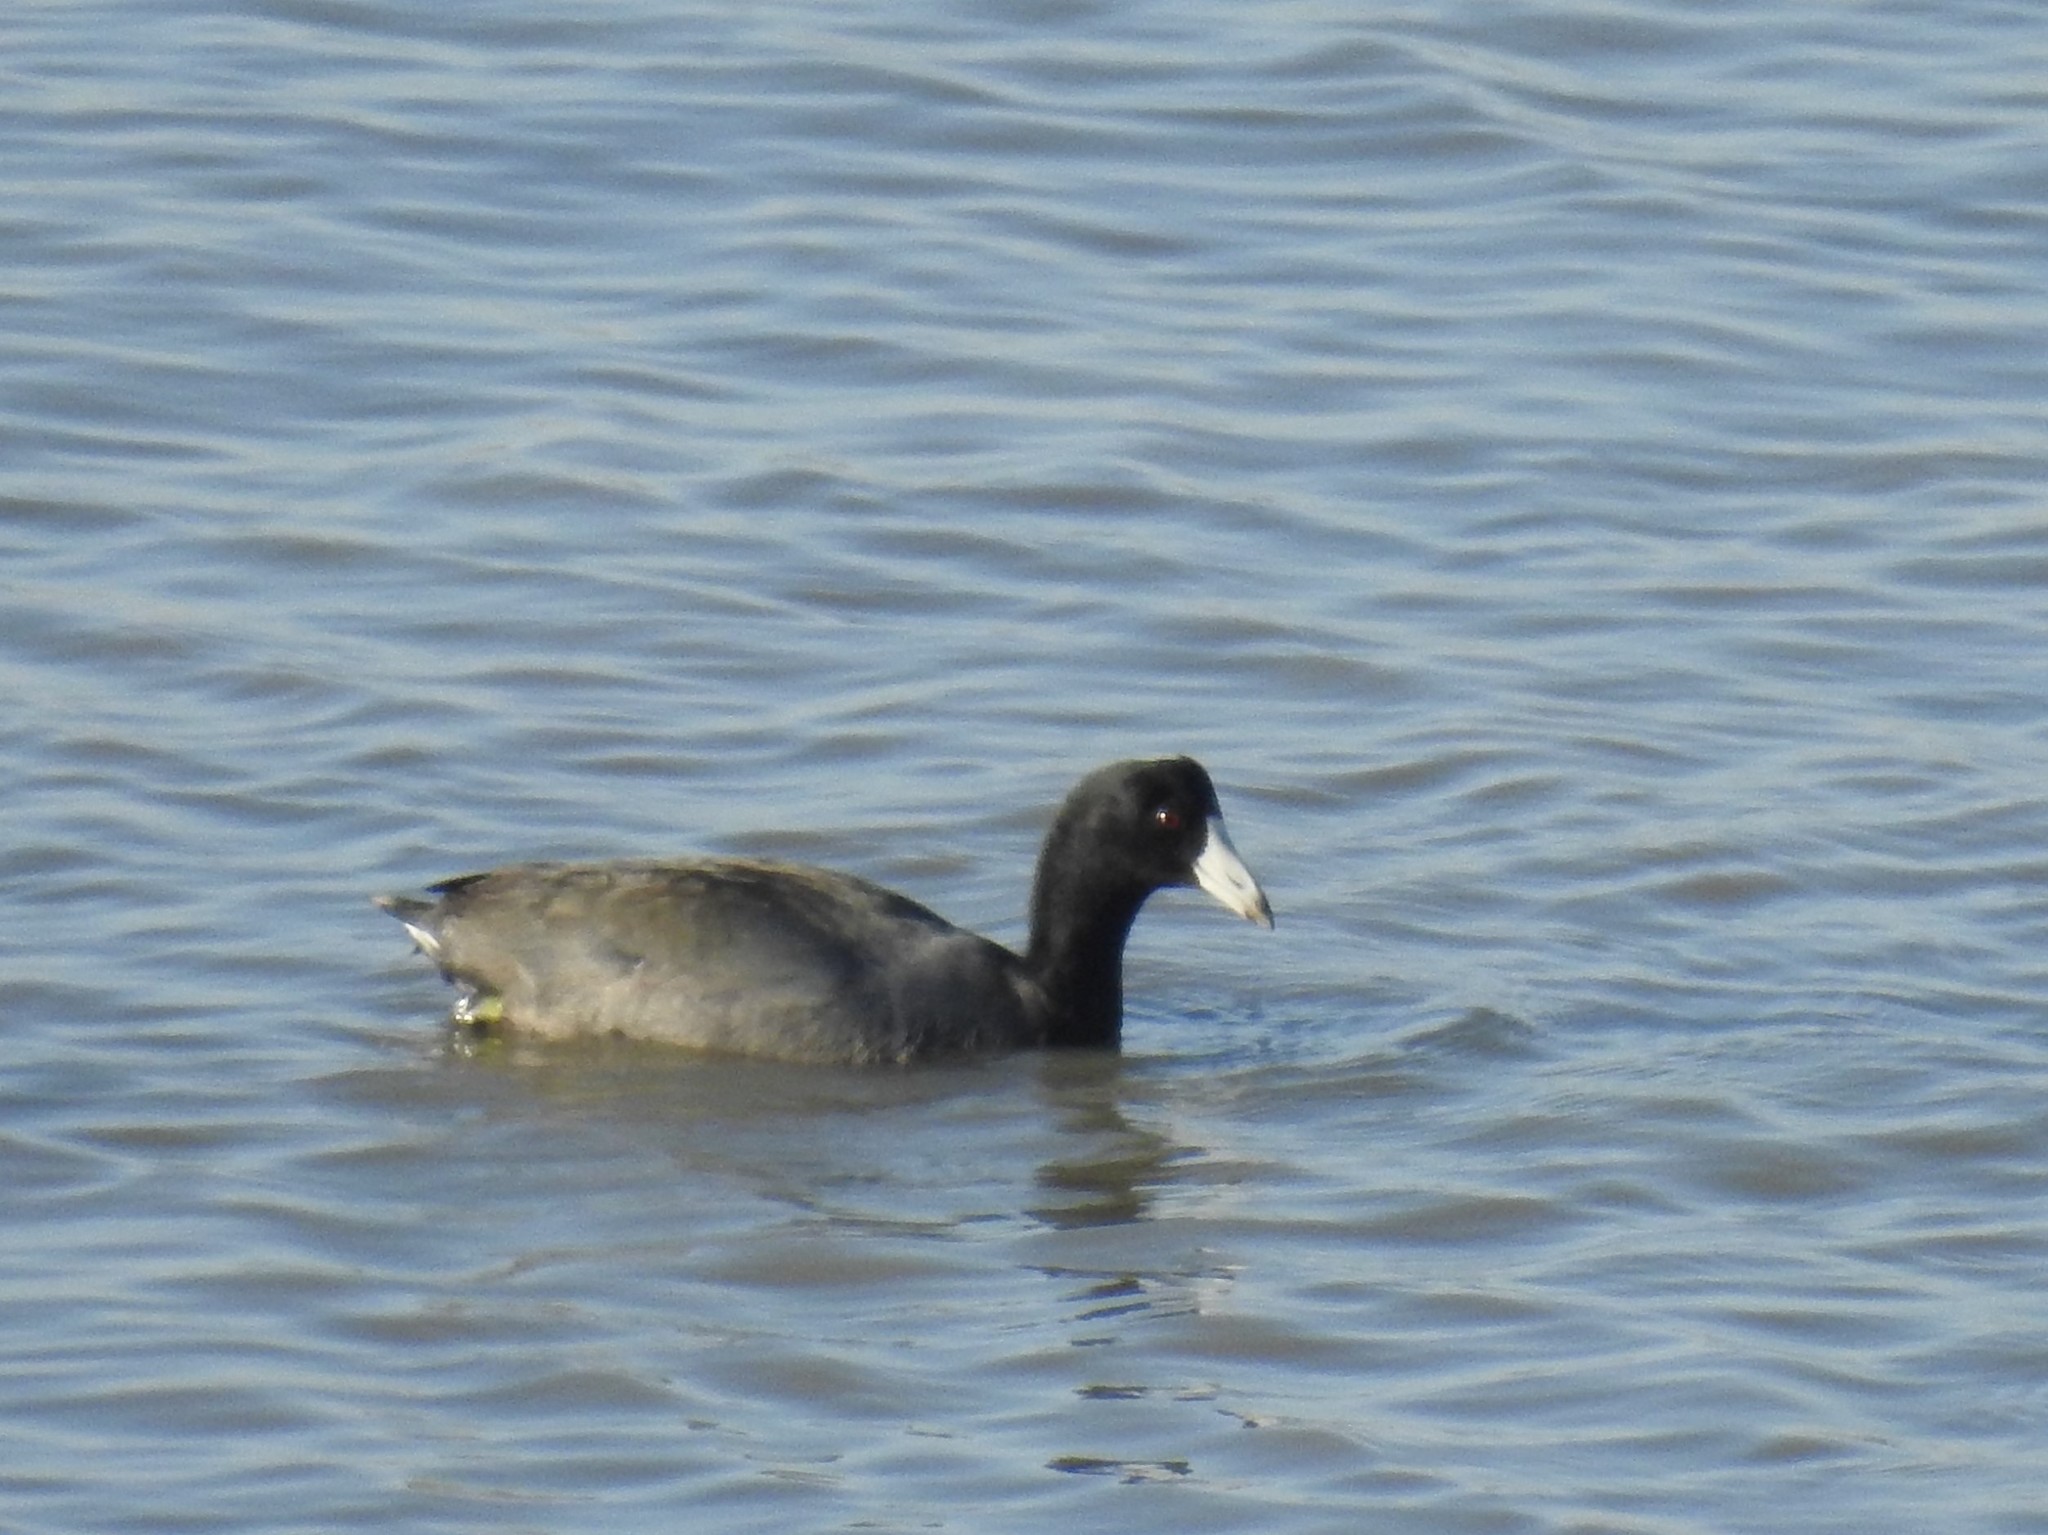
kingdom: Animalia
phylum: Chordata
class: Aves
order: Gruiformes
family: Rallidae
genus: Fulica
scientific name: Fulica americana
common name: American coot
